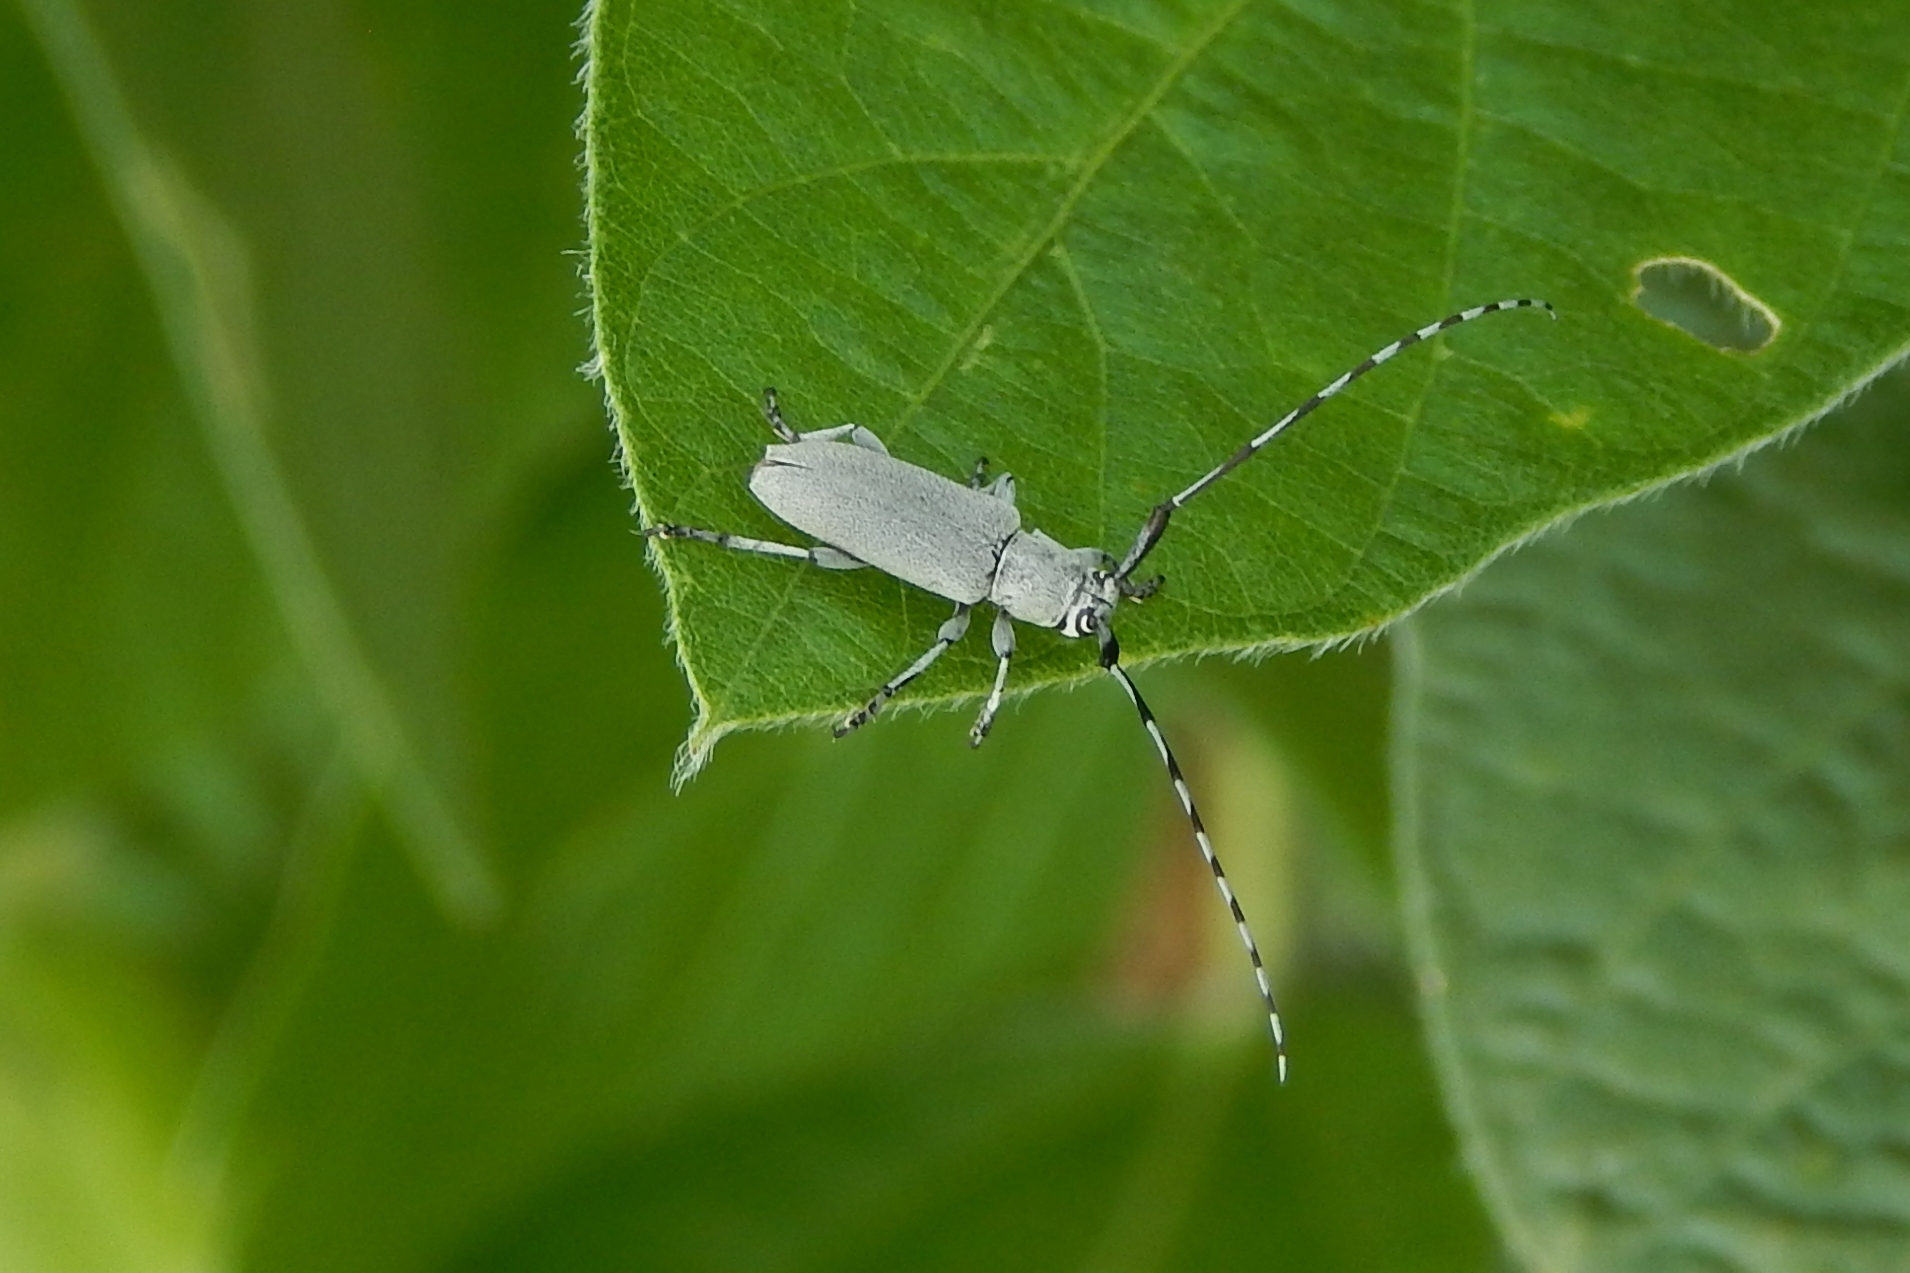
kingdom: Animalia
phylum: Arthropoda
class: Insecta
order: Coleoptera
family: Cerambycidae
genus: Dectes
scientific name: Dectes texanus
